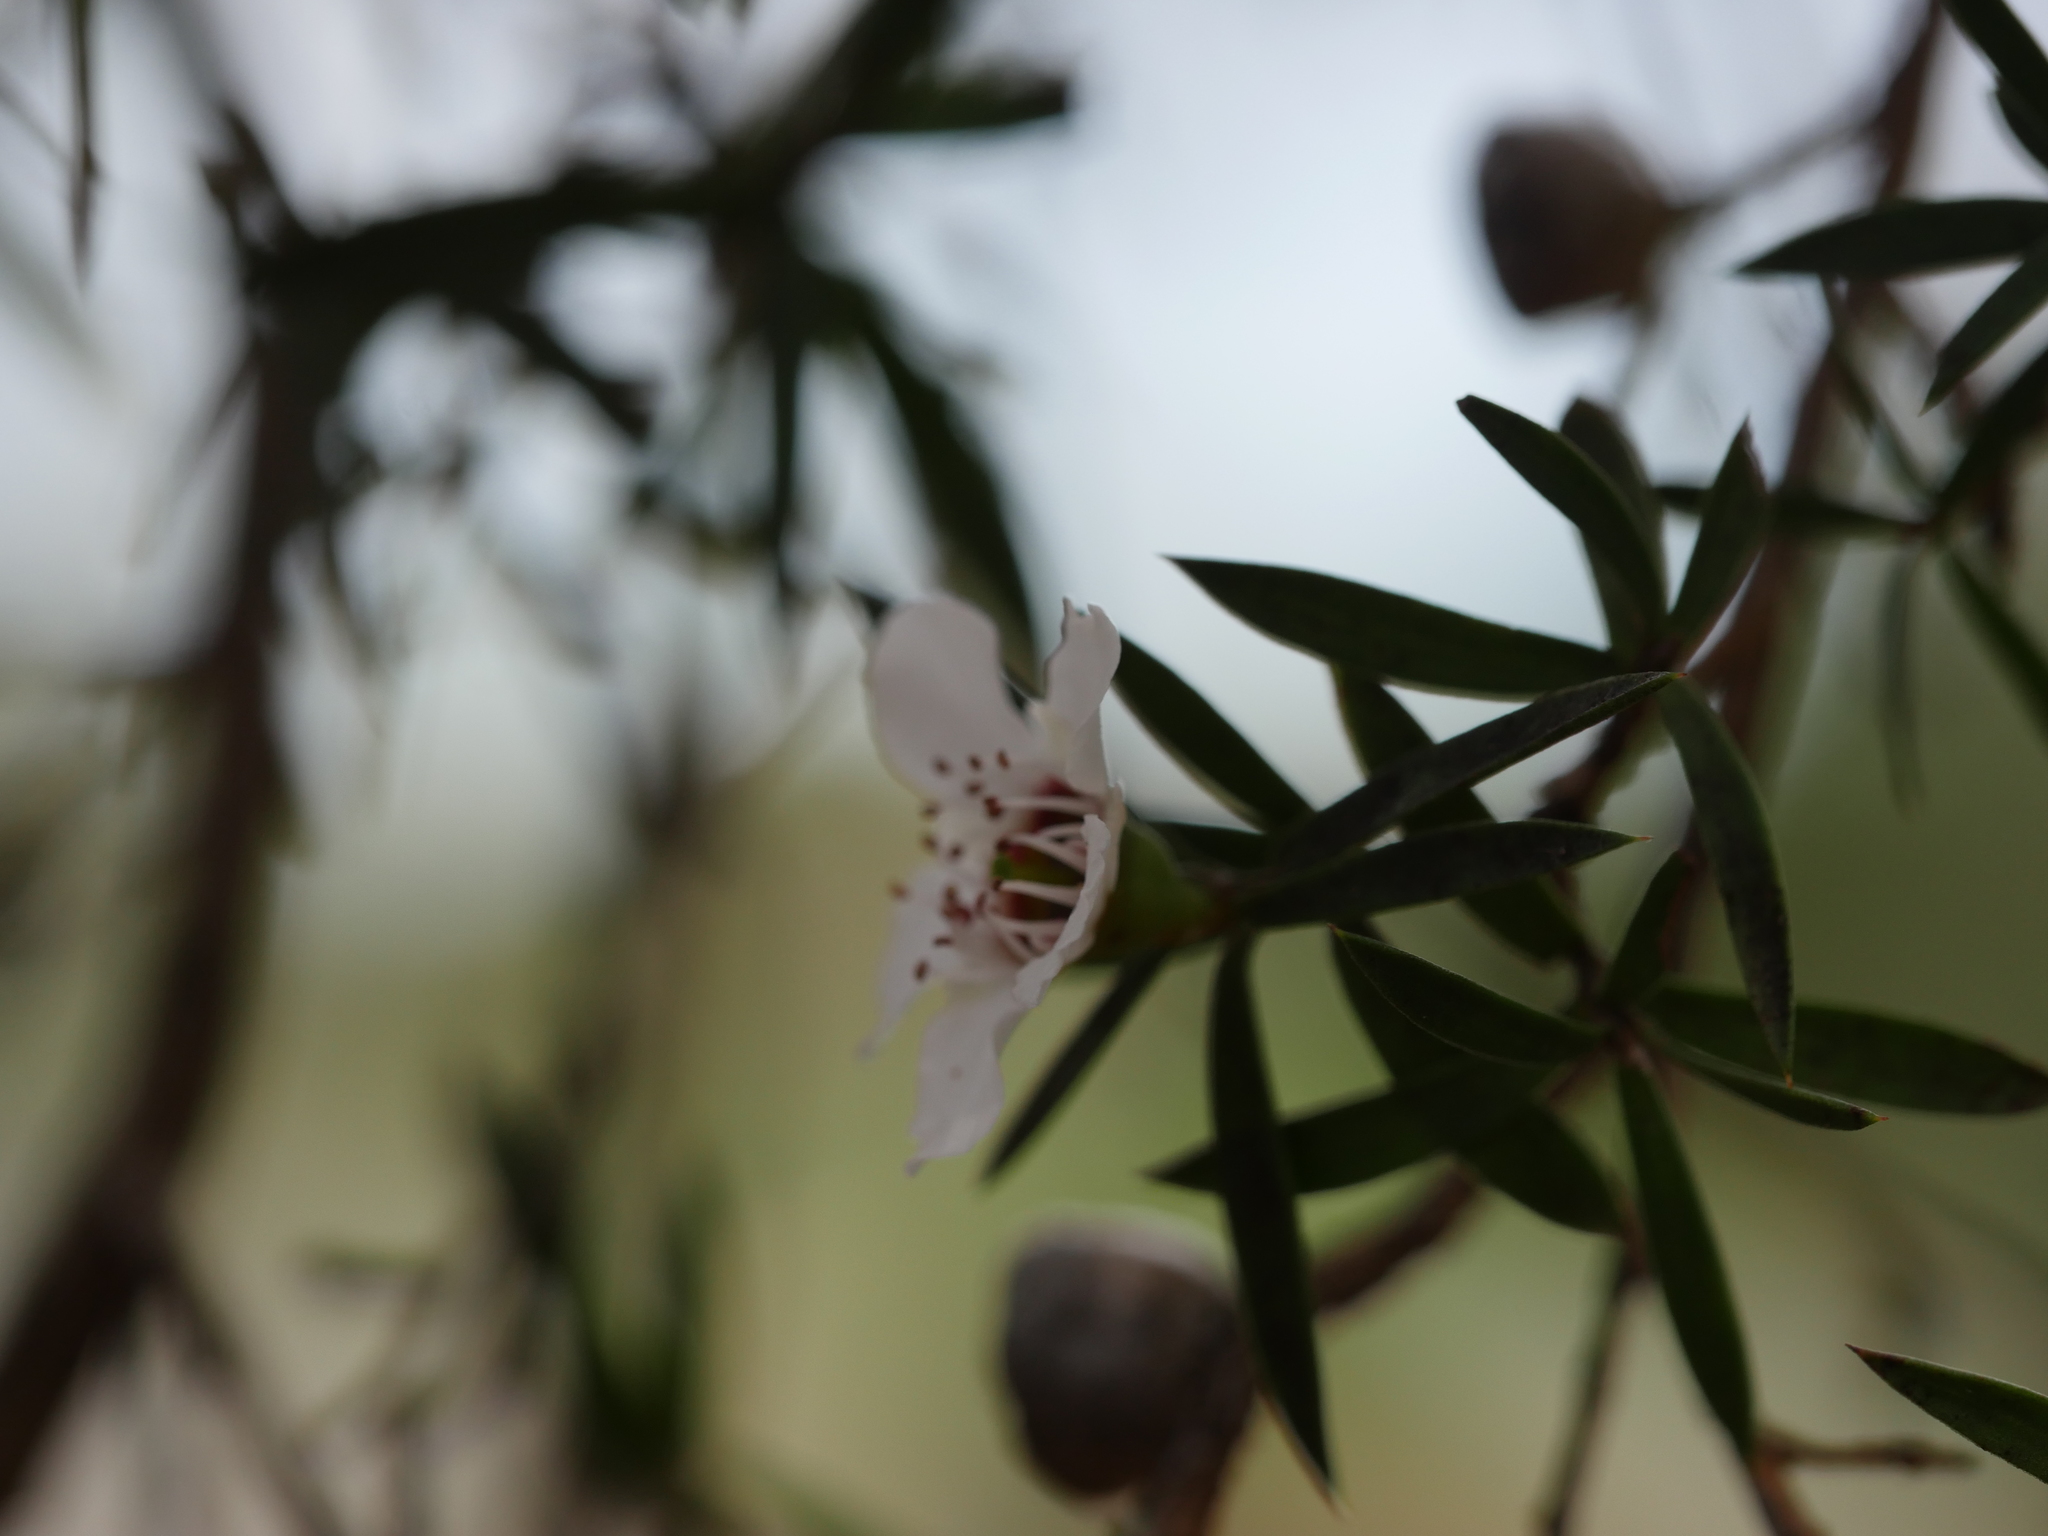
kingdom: Plantae
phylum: Tracheophyta
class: Magnoliopsida
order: Myrtales
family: Myrtaceae
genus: Leptospermum
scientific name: Leptospermum scoparium
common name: Broom tea-tree
